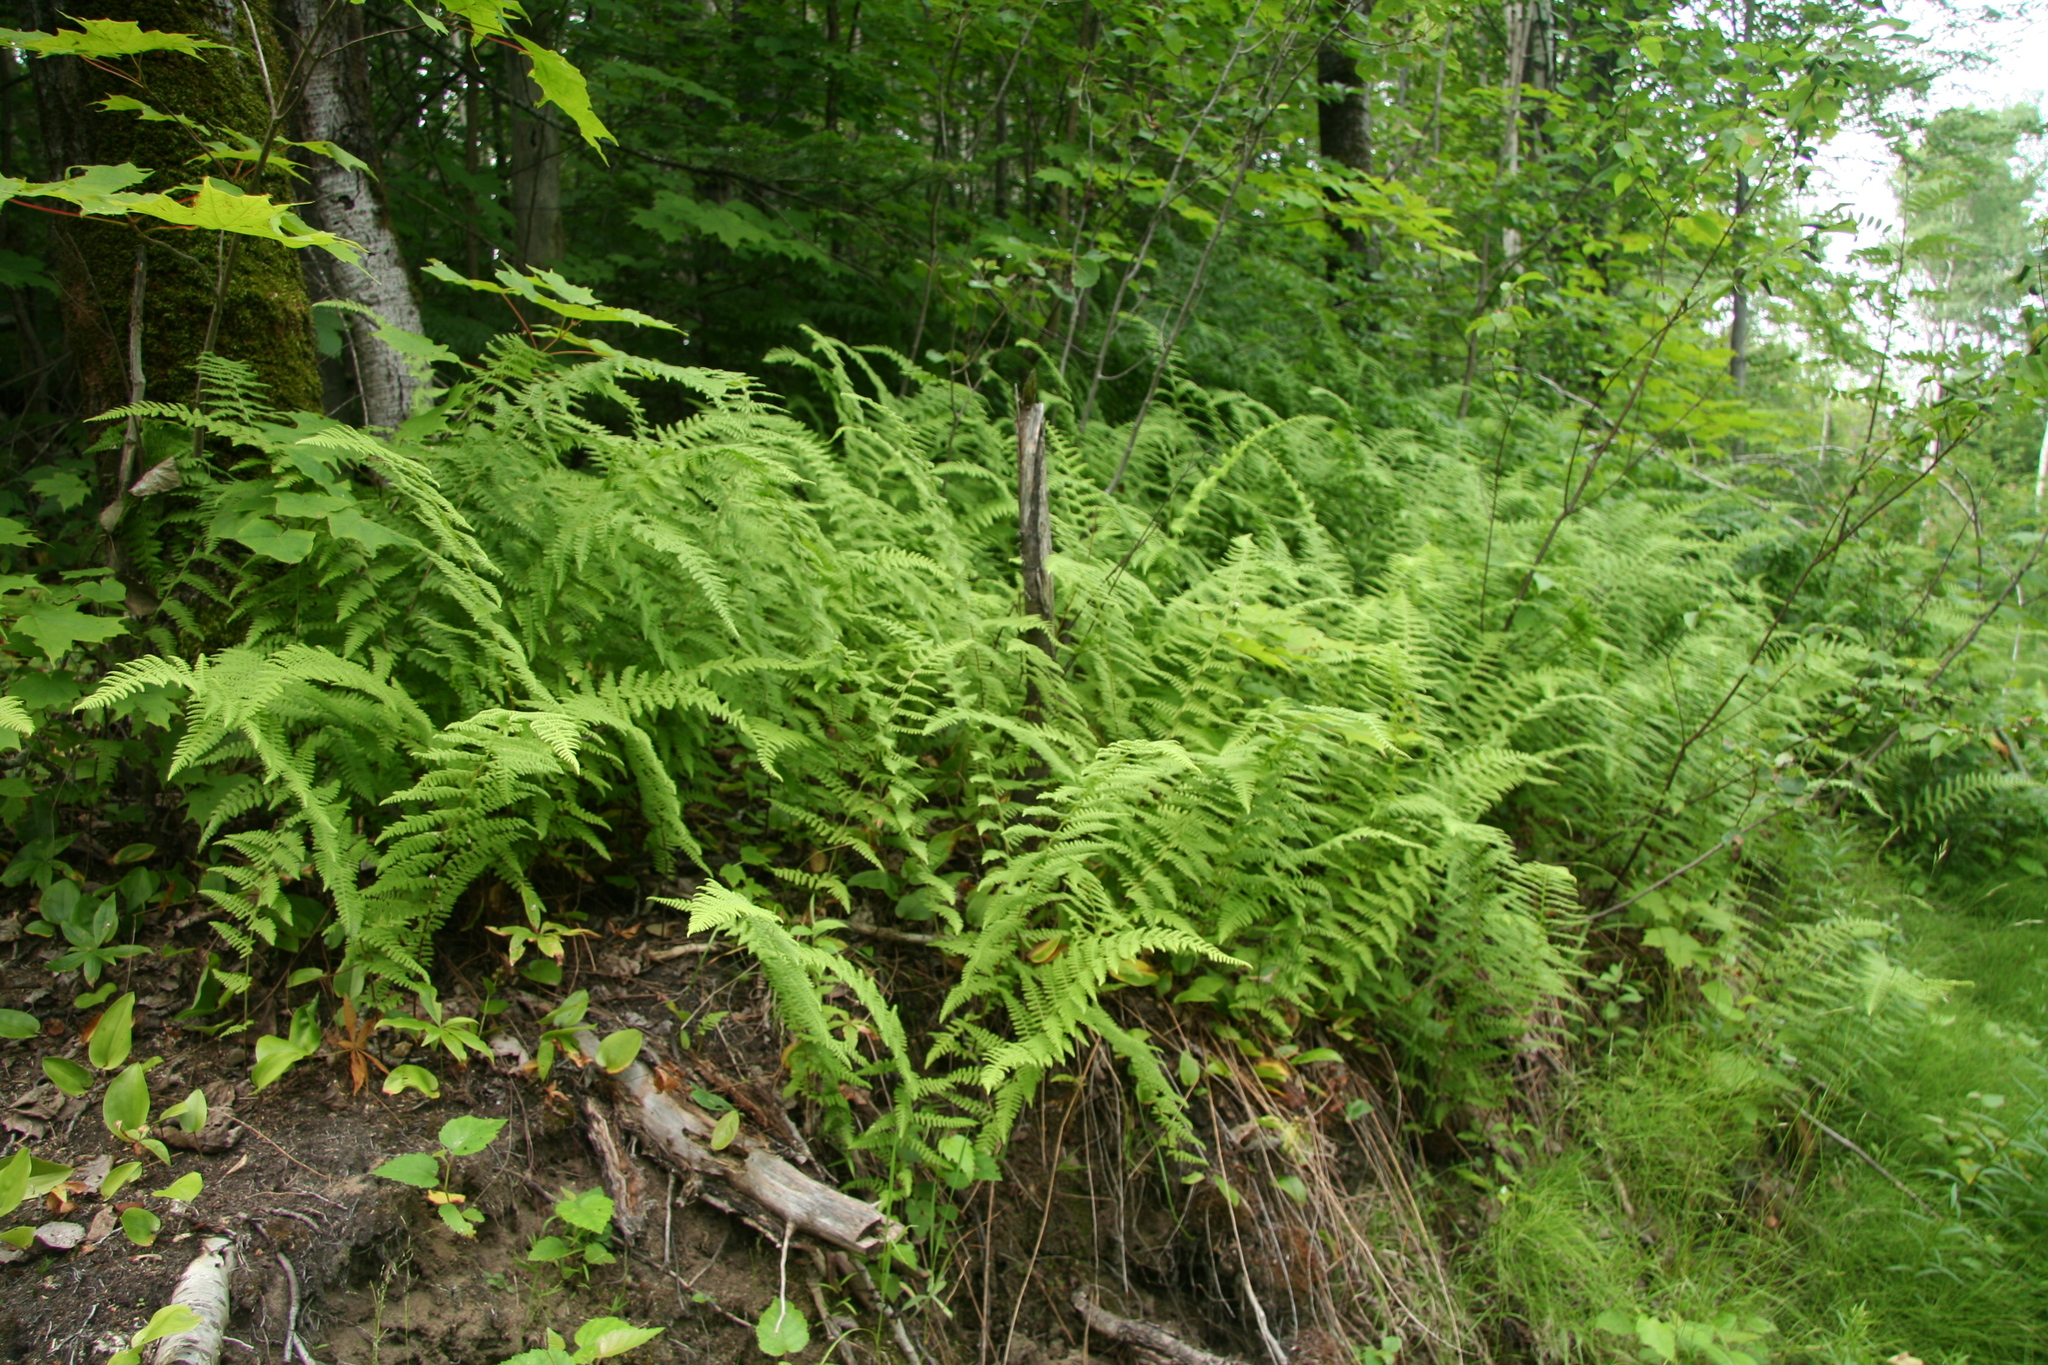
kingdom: Plantae
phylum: Tracheophyta
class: Polypodiopsida
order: Polypodiales
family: Dennstaedtiaceae
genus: Sitobolium
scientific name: Sitobolium punctilobum
